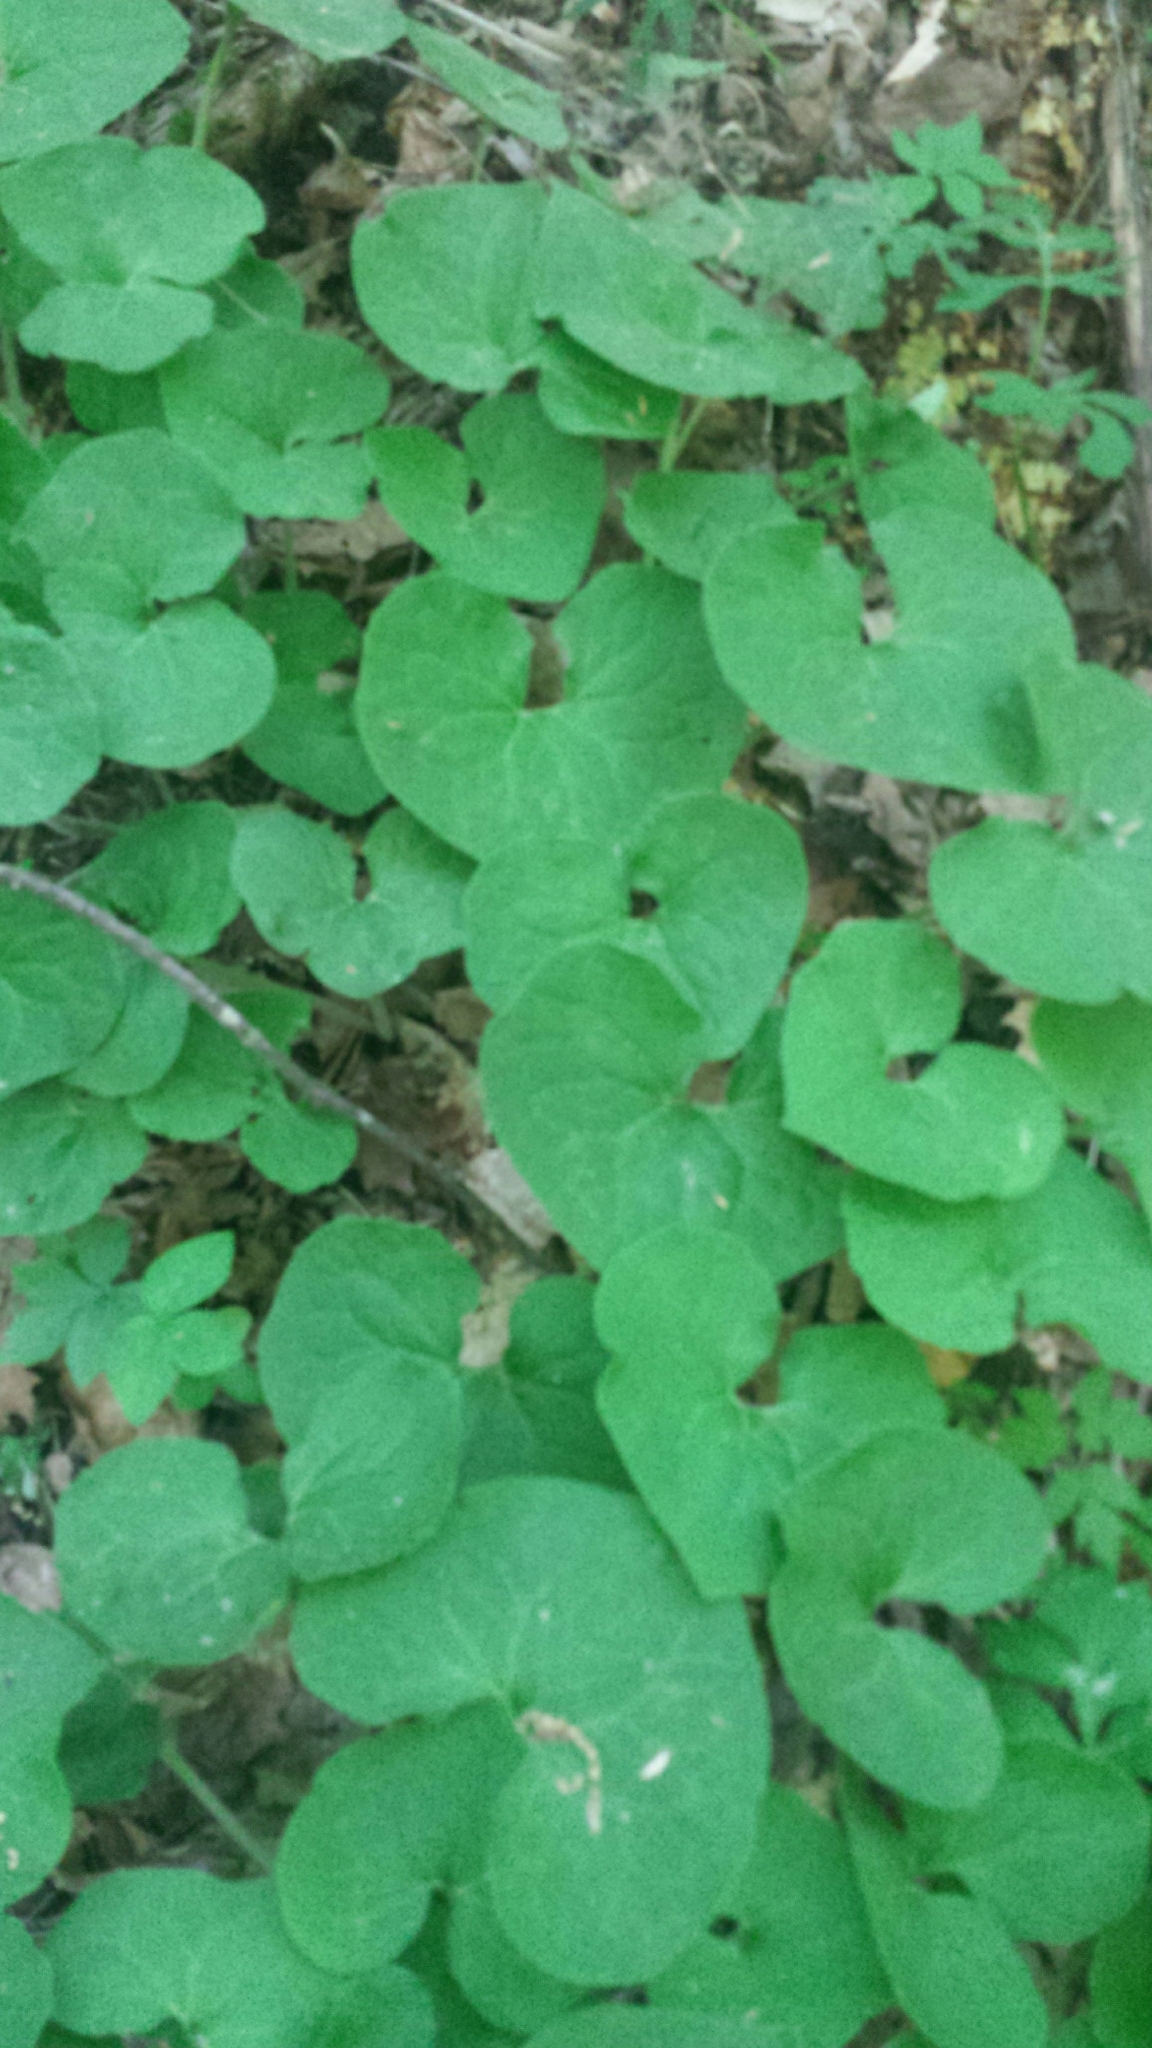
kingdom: Plantae
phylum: Tracheophyta
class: Magnoliopsida
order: Piperales
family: Aristolochiaceae
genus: Asarum
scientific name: Asarum canadense
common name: Wild ginger
